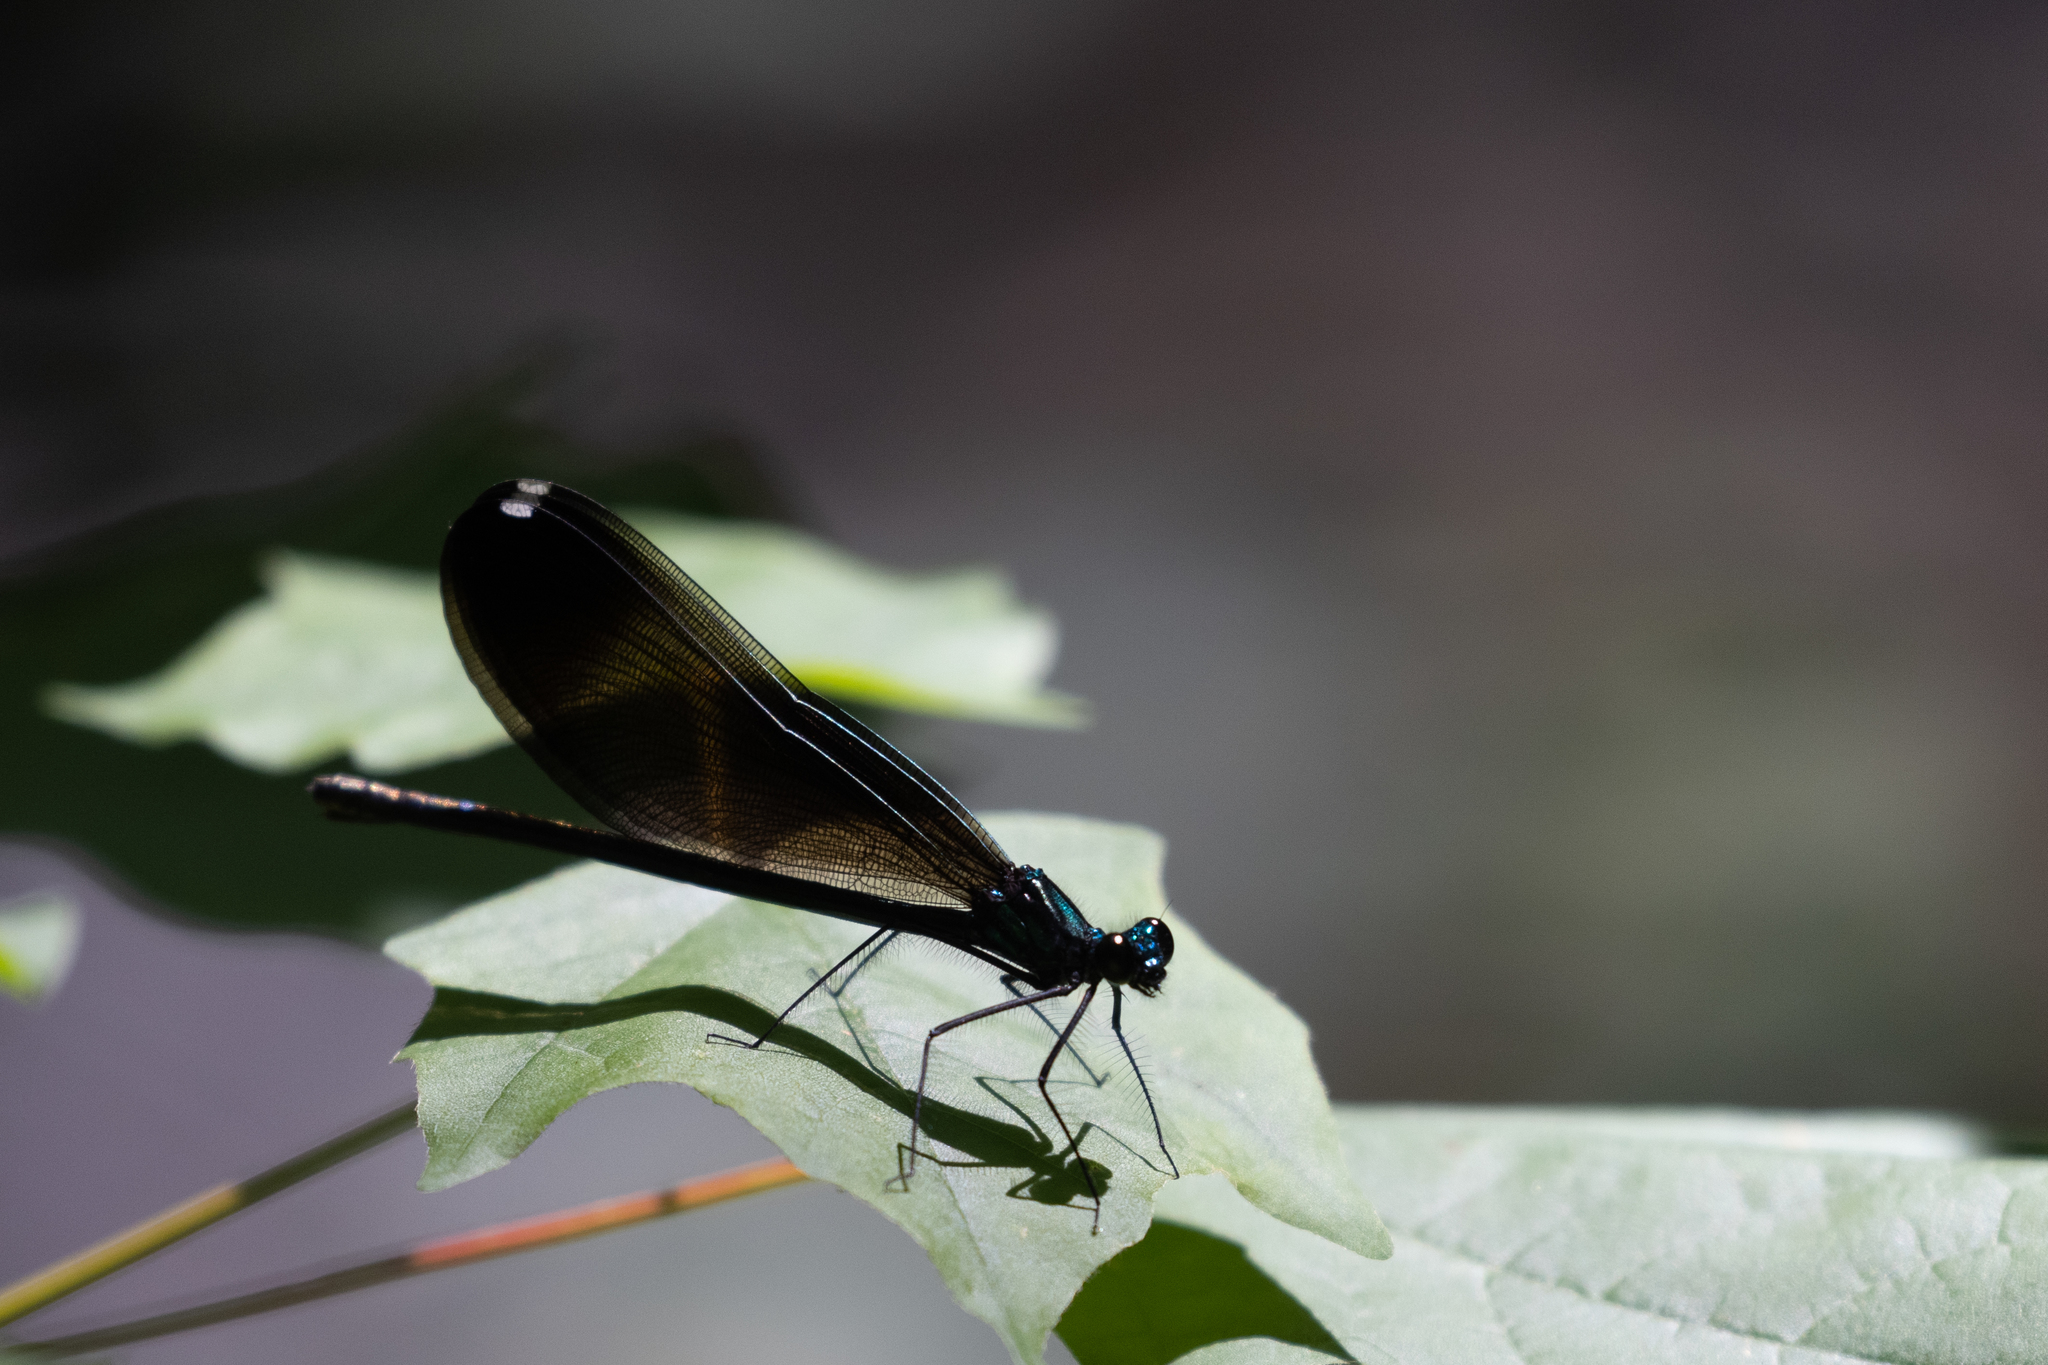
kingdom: Animalia
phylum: Arthropoda
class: Insecta
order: Odonata
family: Calopterygidae
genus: Calopteryx
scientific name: Calopteryx maculata
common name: Ebony jewelwing
